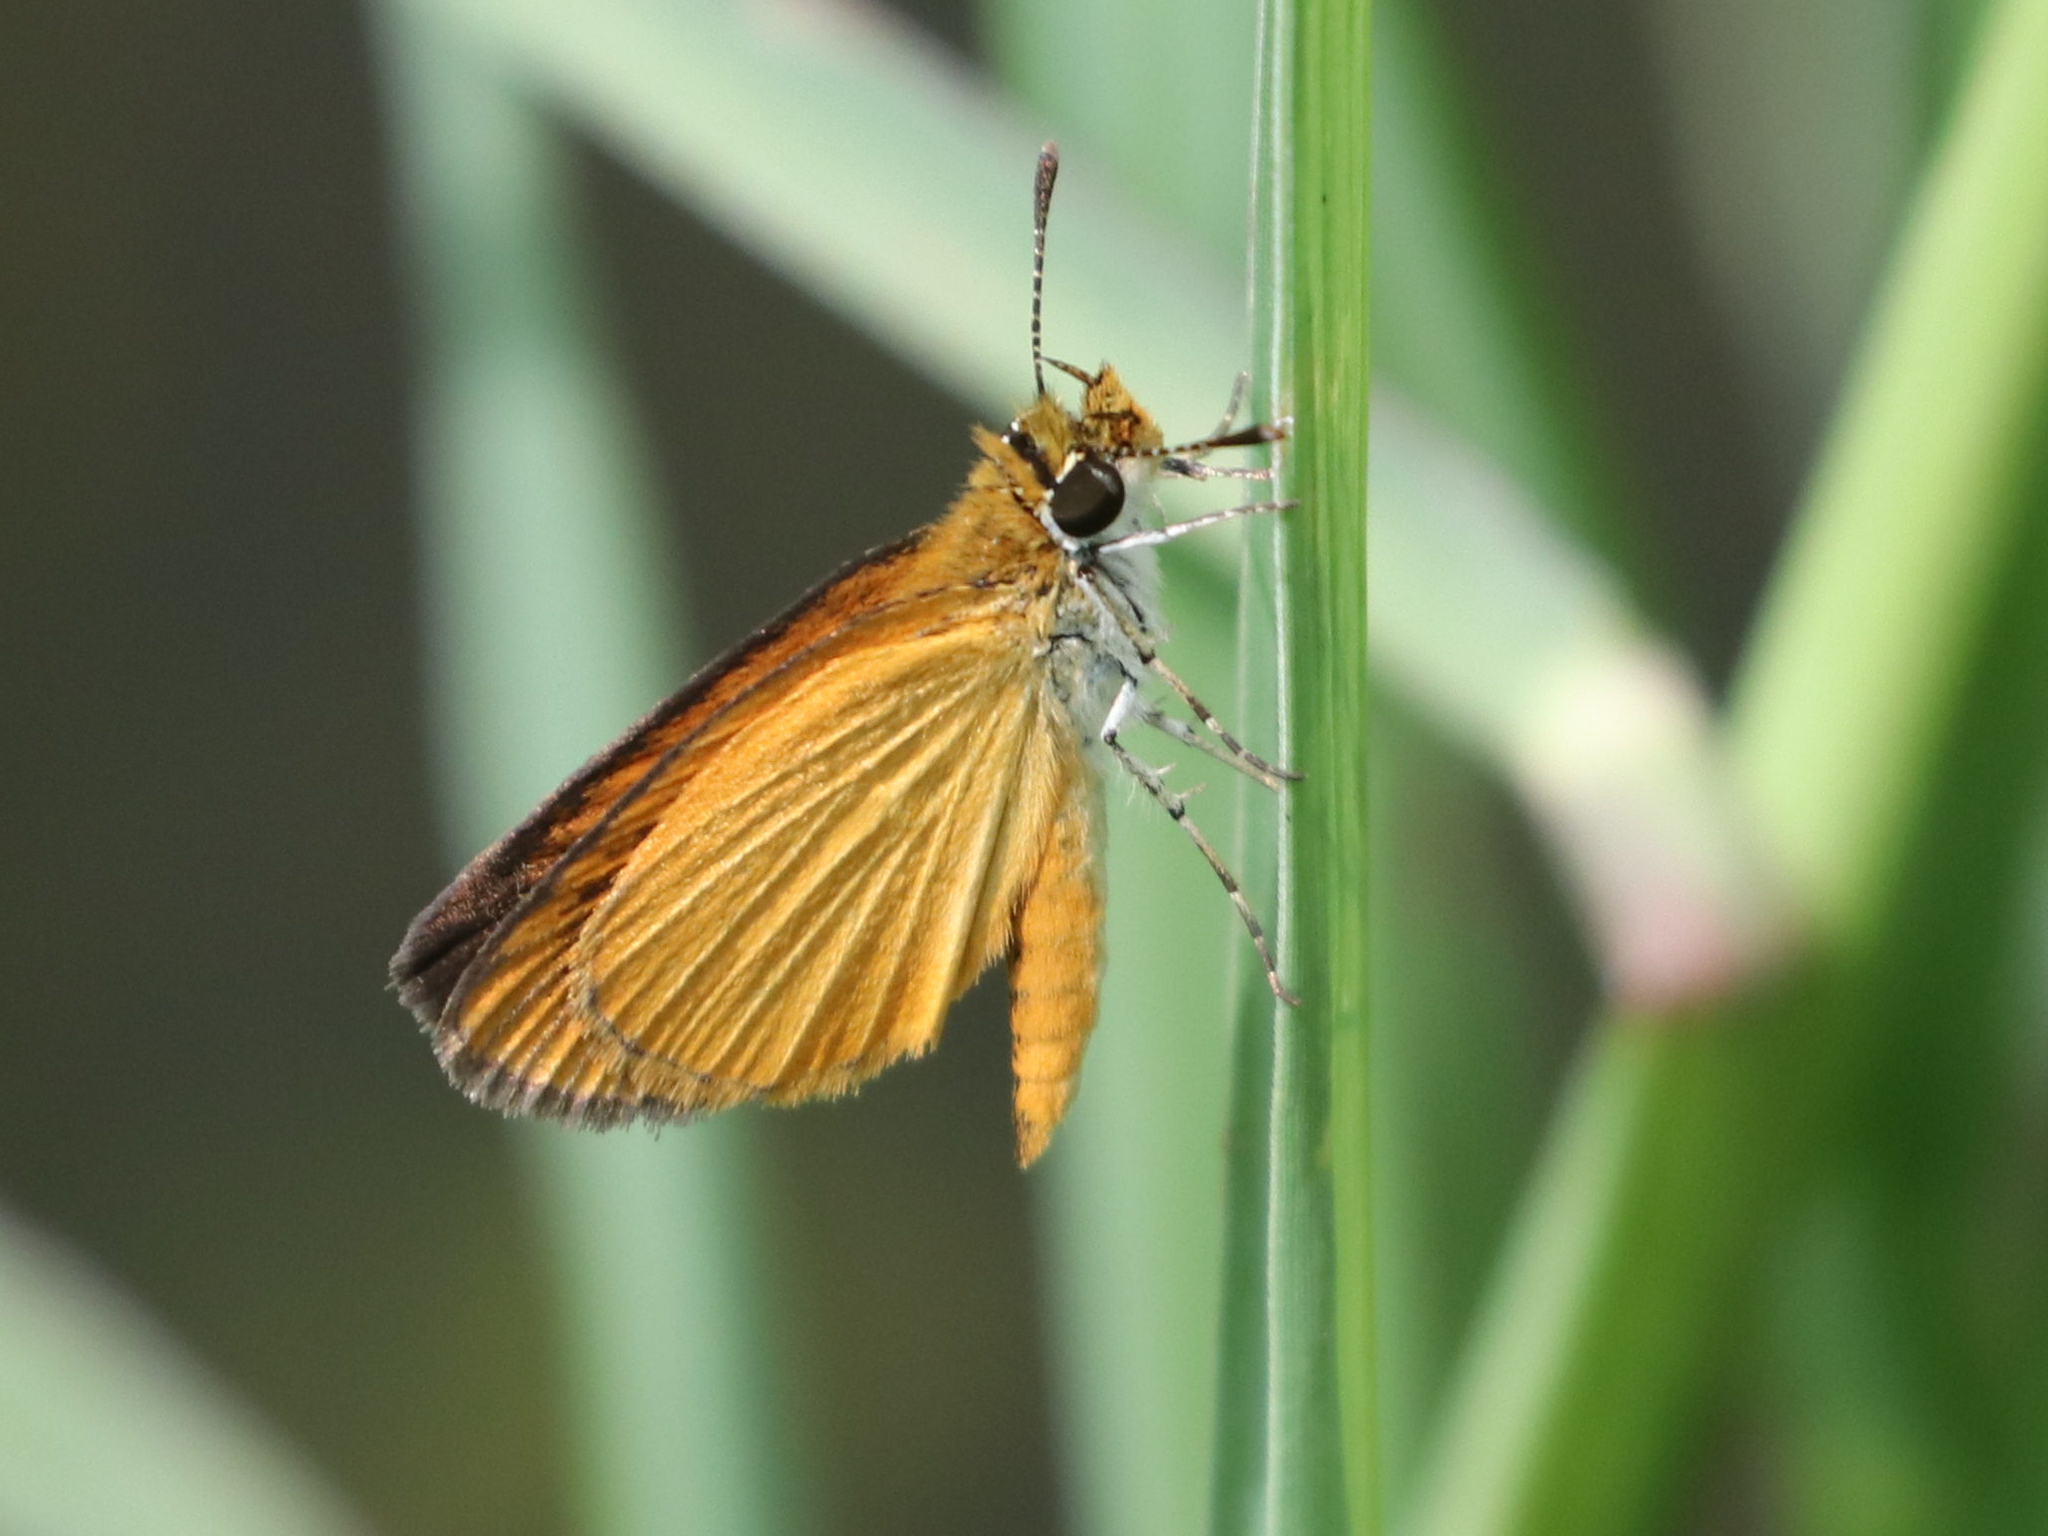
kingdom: Animalia
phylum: Arthropoda
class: Insecta
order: Lepidoptera
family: Hesperiidae
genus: Ancyloxypha
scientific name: Ancyloxypha numitor
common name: Least skipper
